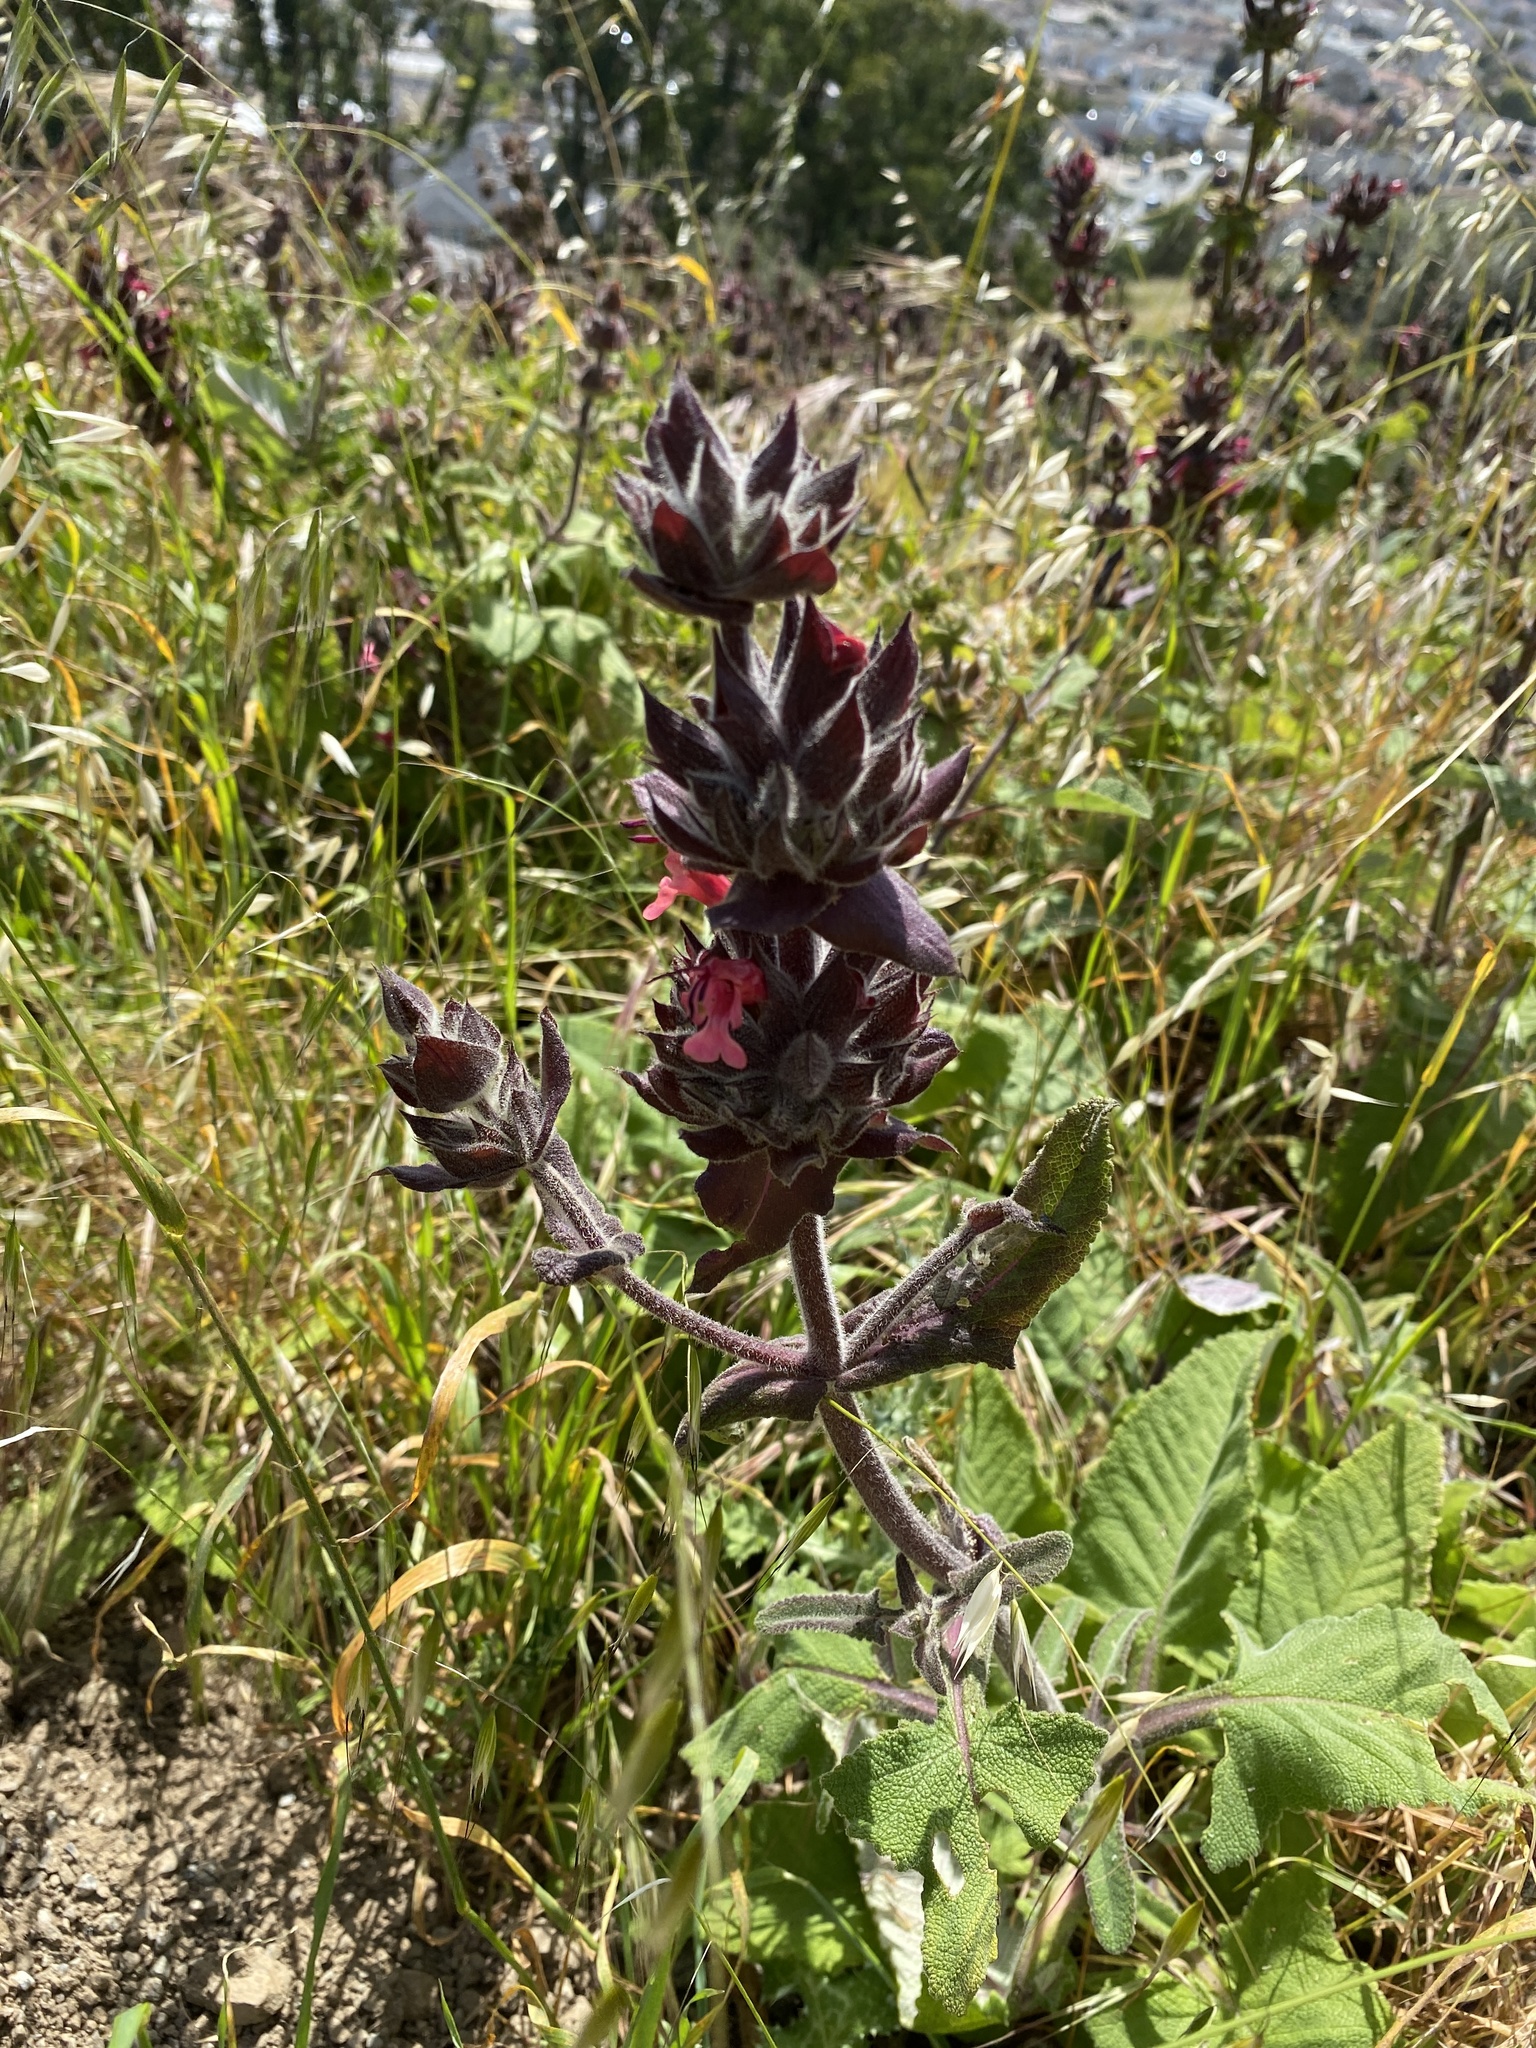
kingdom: Plantae
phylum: Tracheophyta
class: Magnoliopsida
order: Lamiales
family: Lamiaceae
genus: Salvia
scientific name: Salvia spathacea
